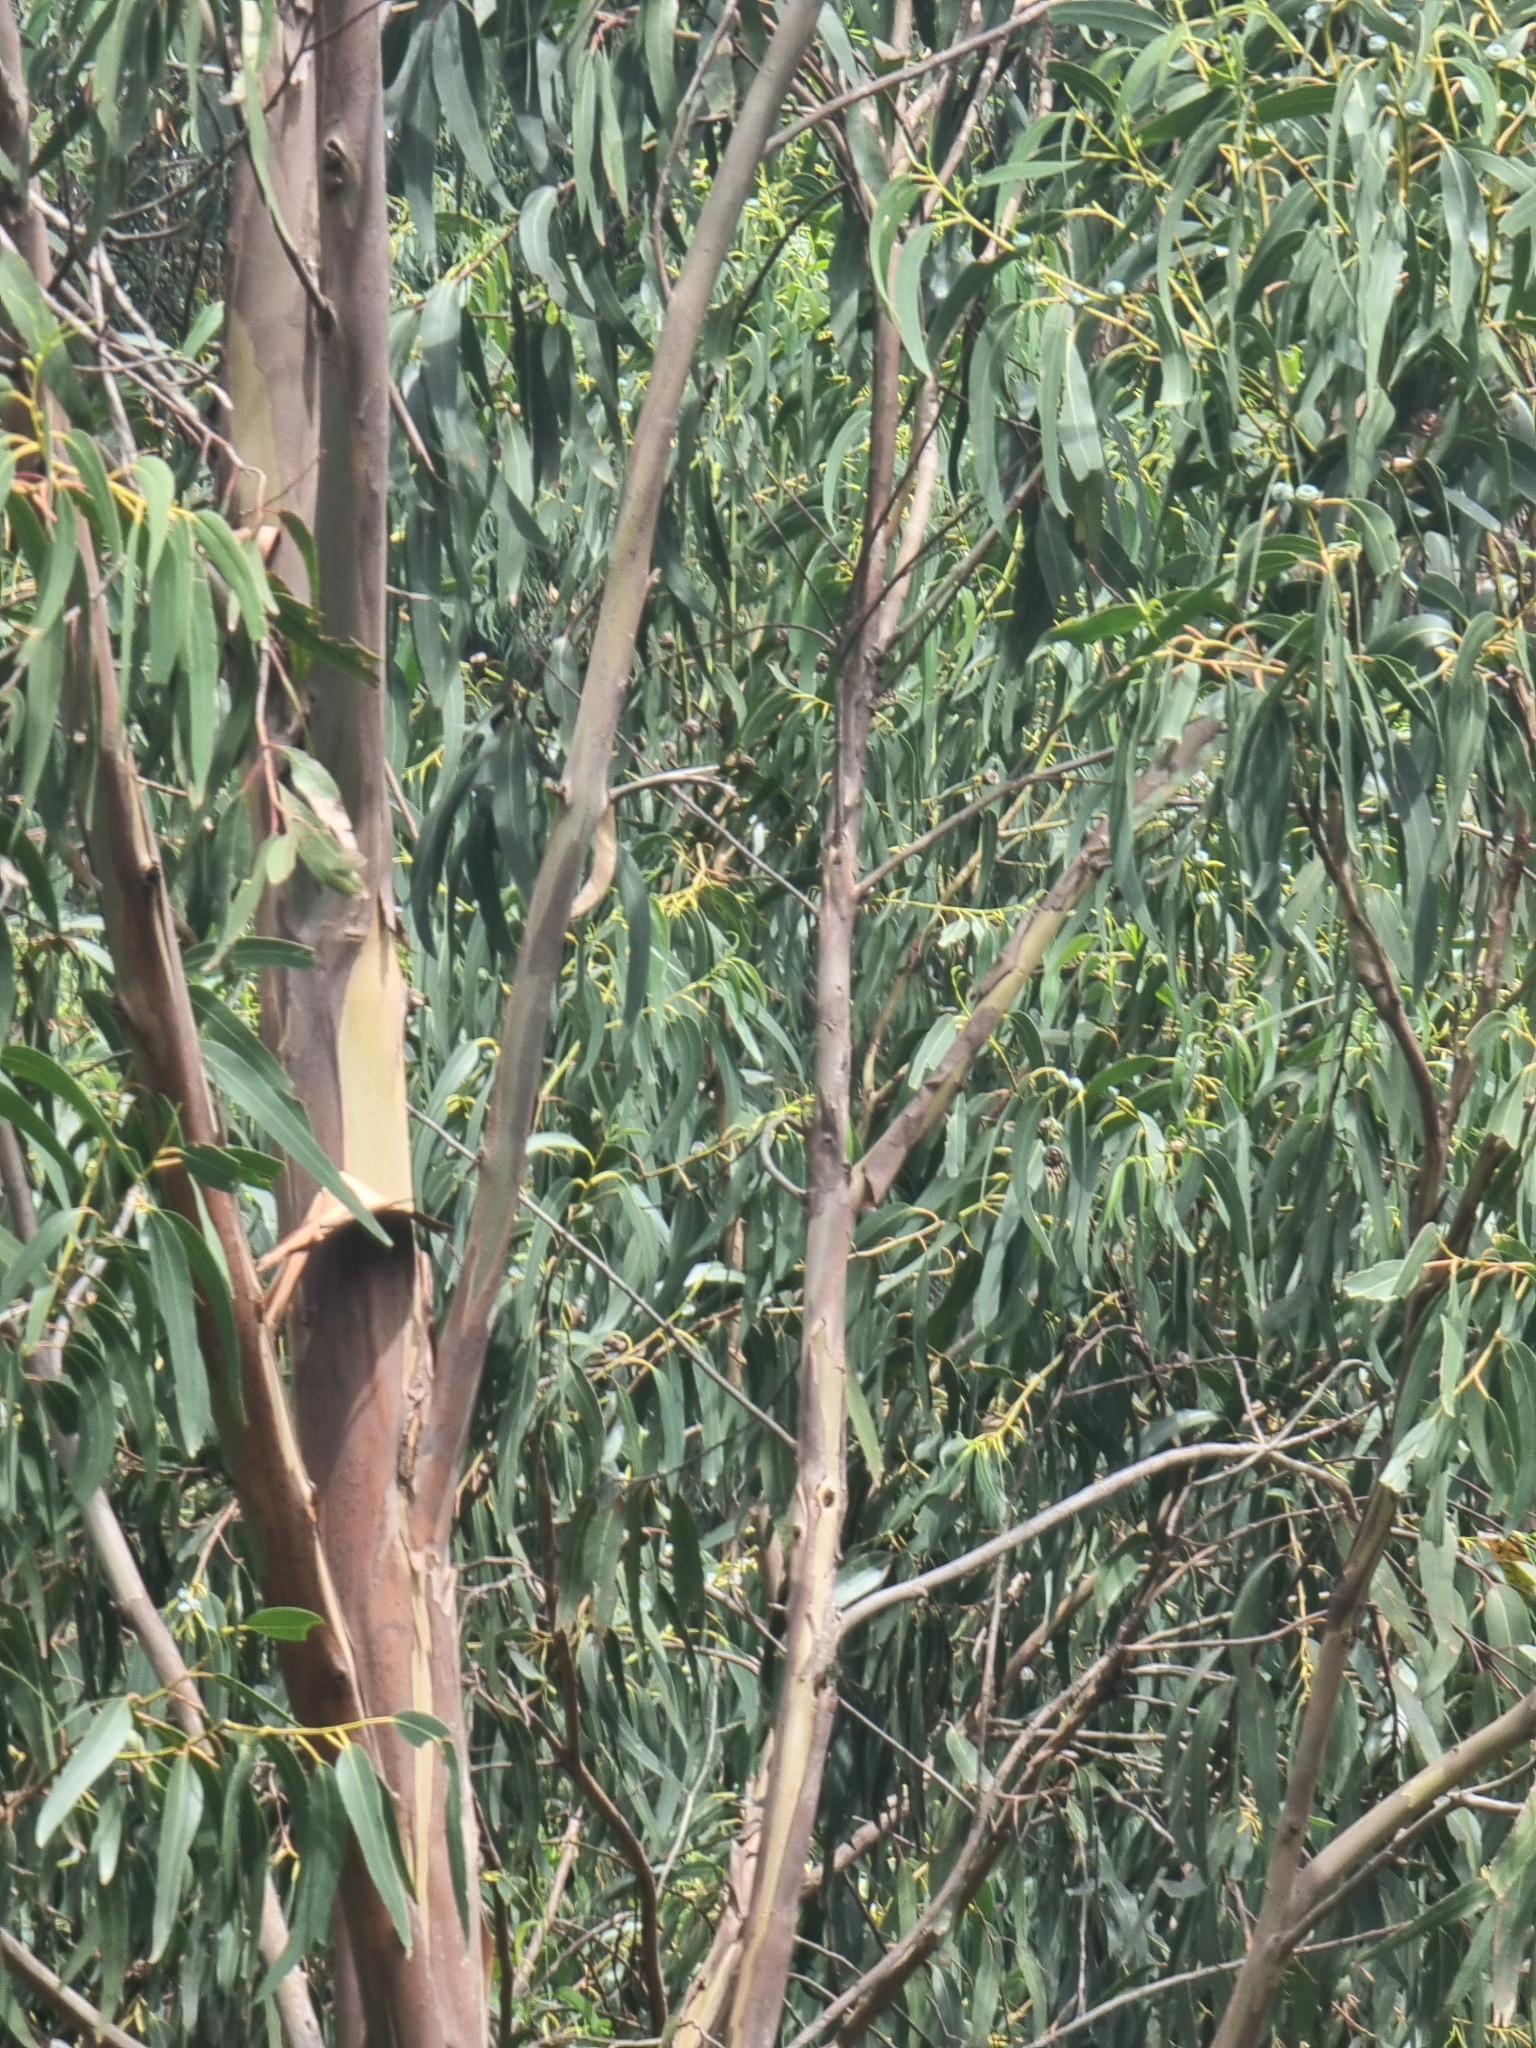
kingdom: Plantae
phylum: Tracheophyta
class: Magnoliopsida
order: Myrtales
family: Myrtaceae
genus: Eucalyptus
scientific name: Eucalyptus globulus
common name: Southern blue-gum
